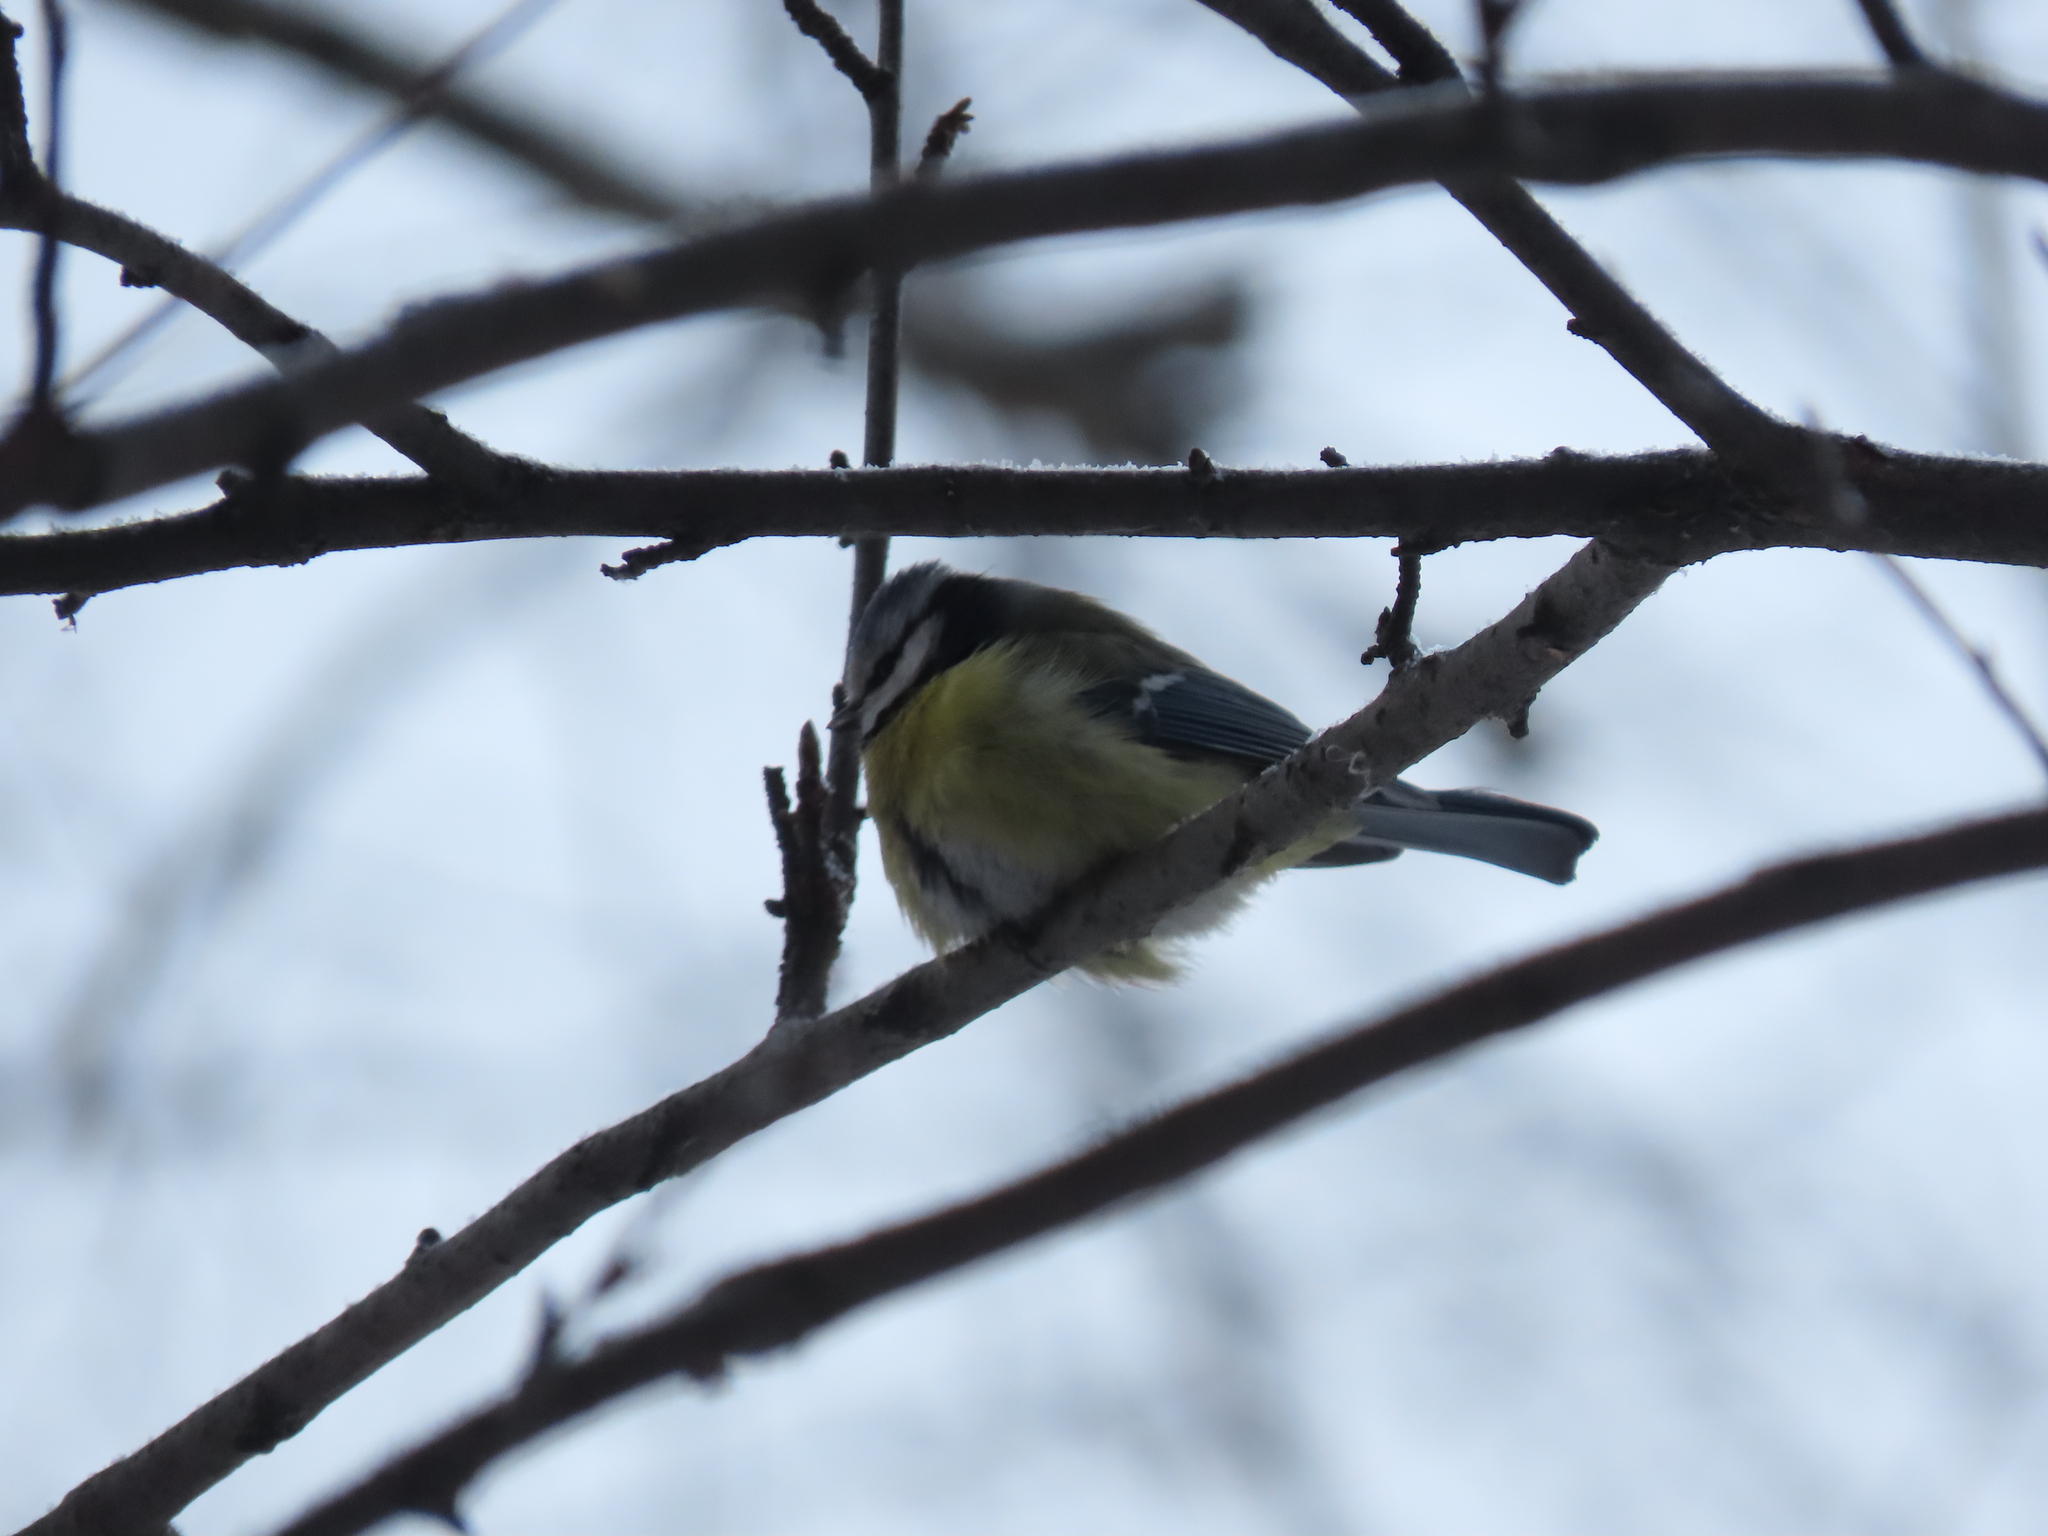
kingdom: Animalia
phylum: Chordata
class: Aves
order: Passeriformes
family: Paridae
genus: Cyanistes
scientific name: Cyanistes caeruleus
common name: Eurasian blue tit
